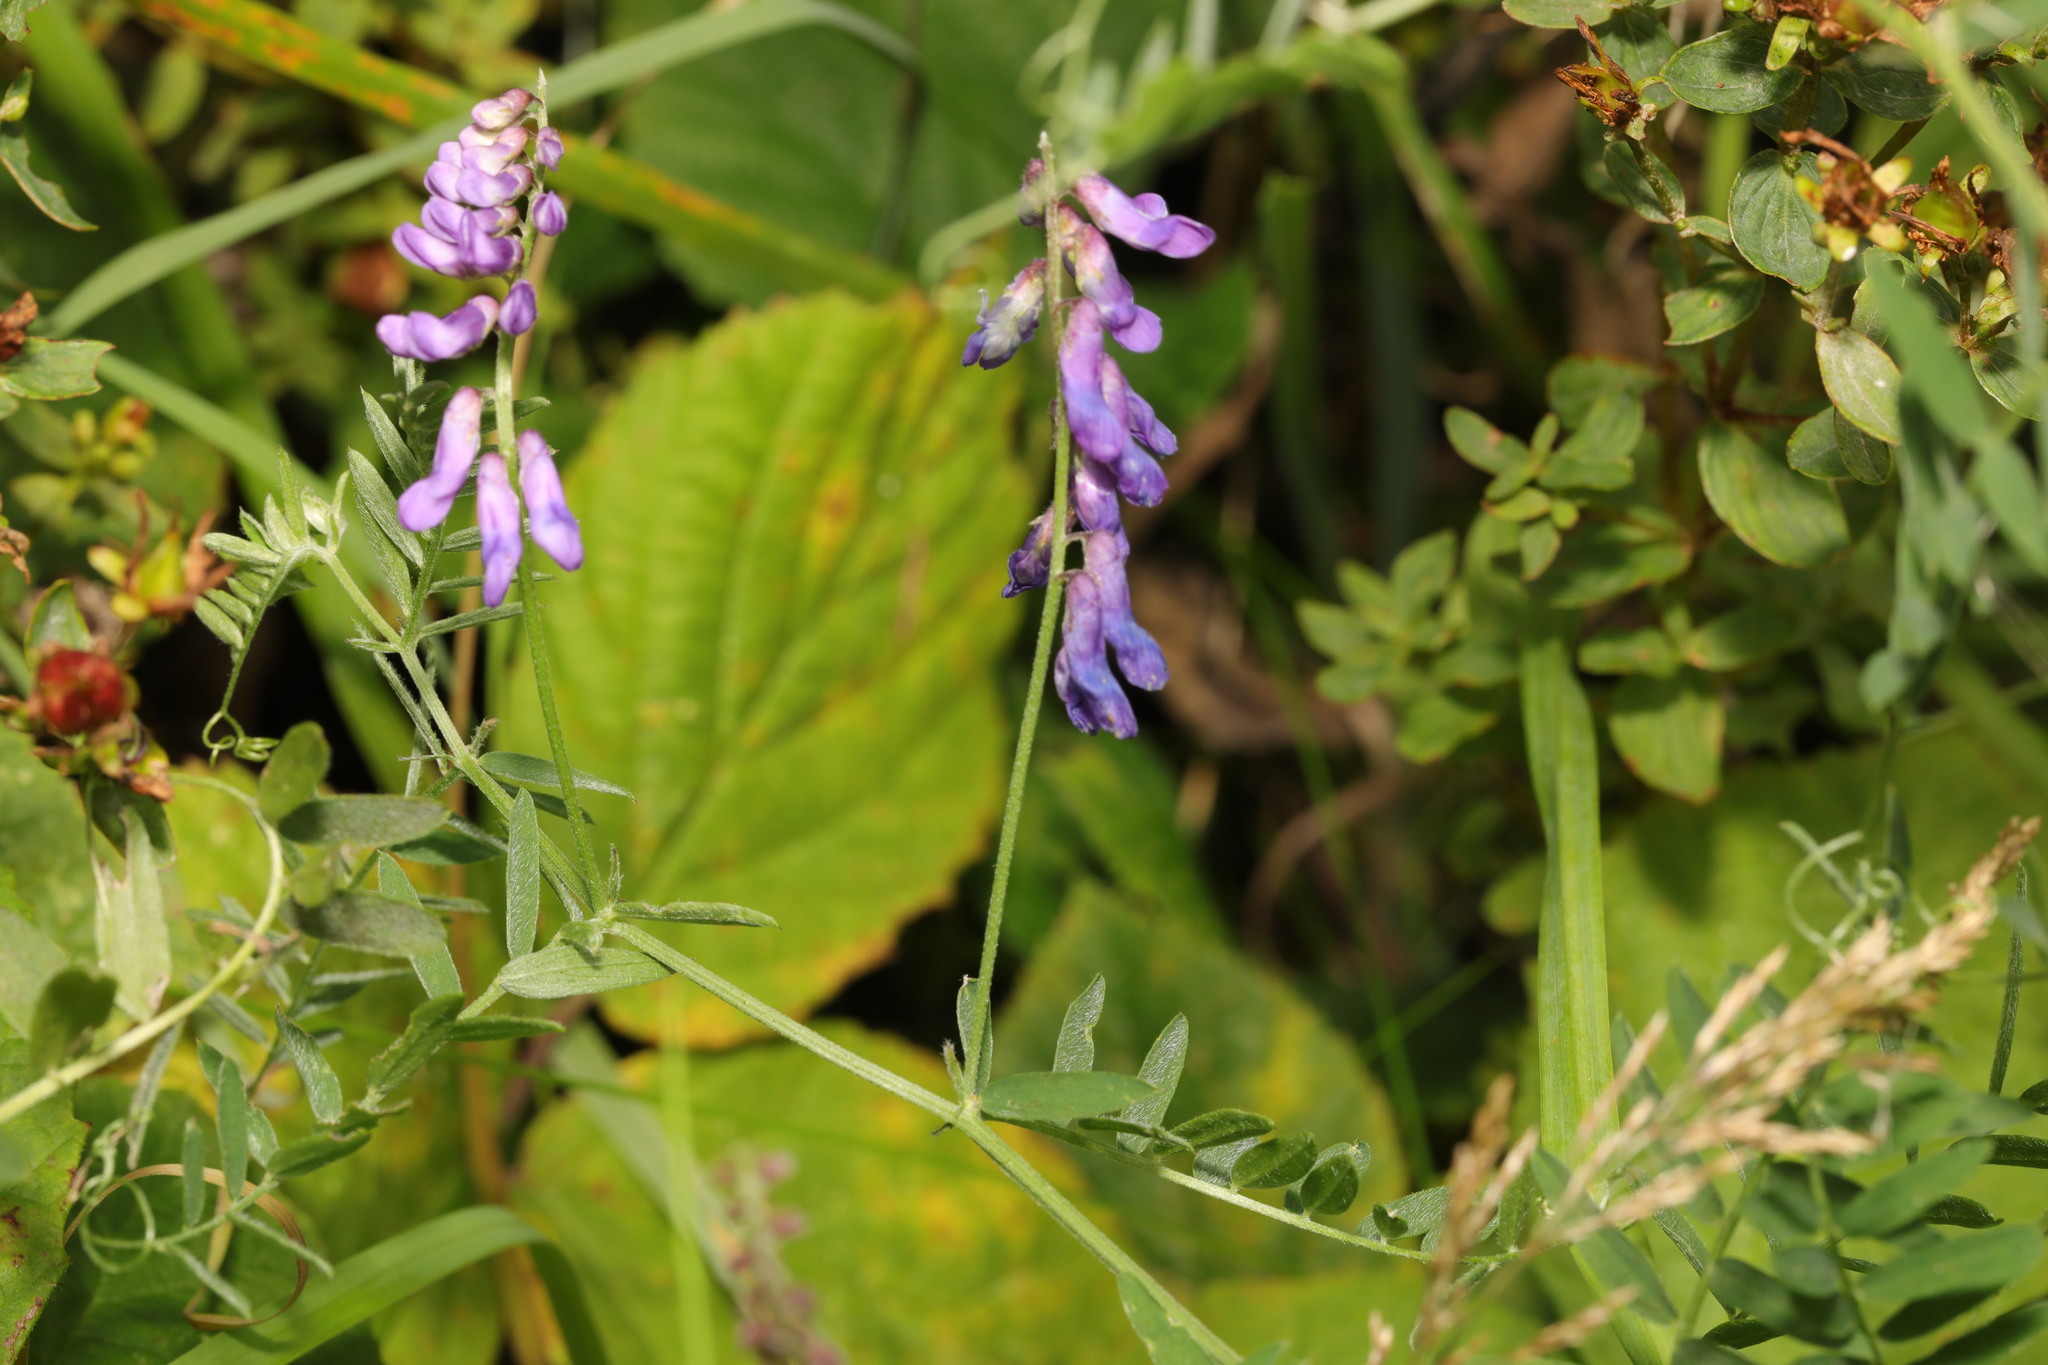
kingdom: Plantae
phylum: Tracheophyta
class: Magnoliopsida
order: Fabales
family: Fabaceae
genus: Vicia
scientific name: Vicia cracca
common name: Bird vetch
